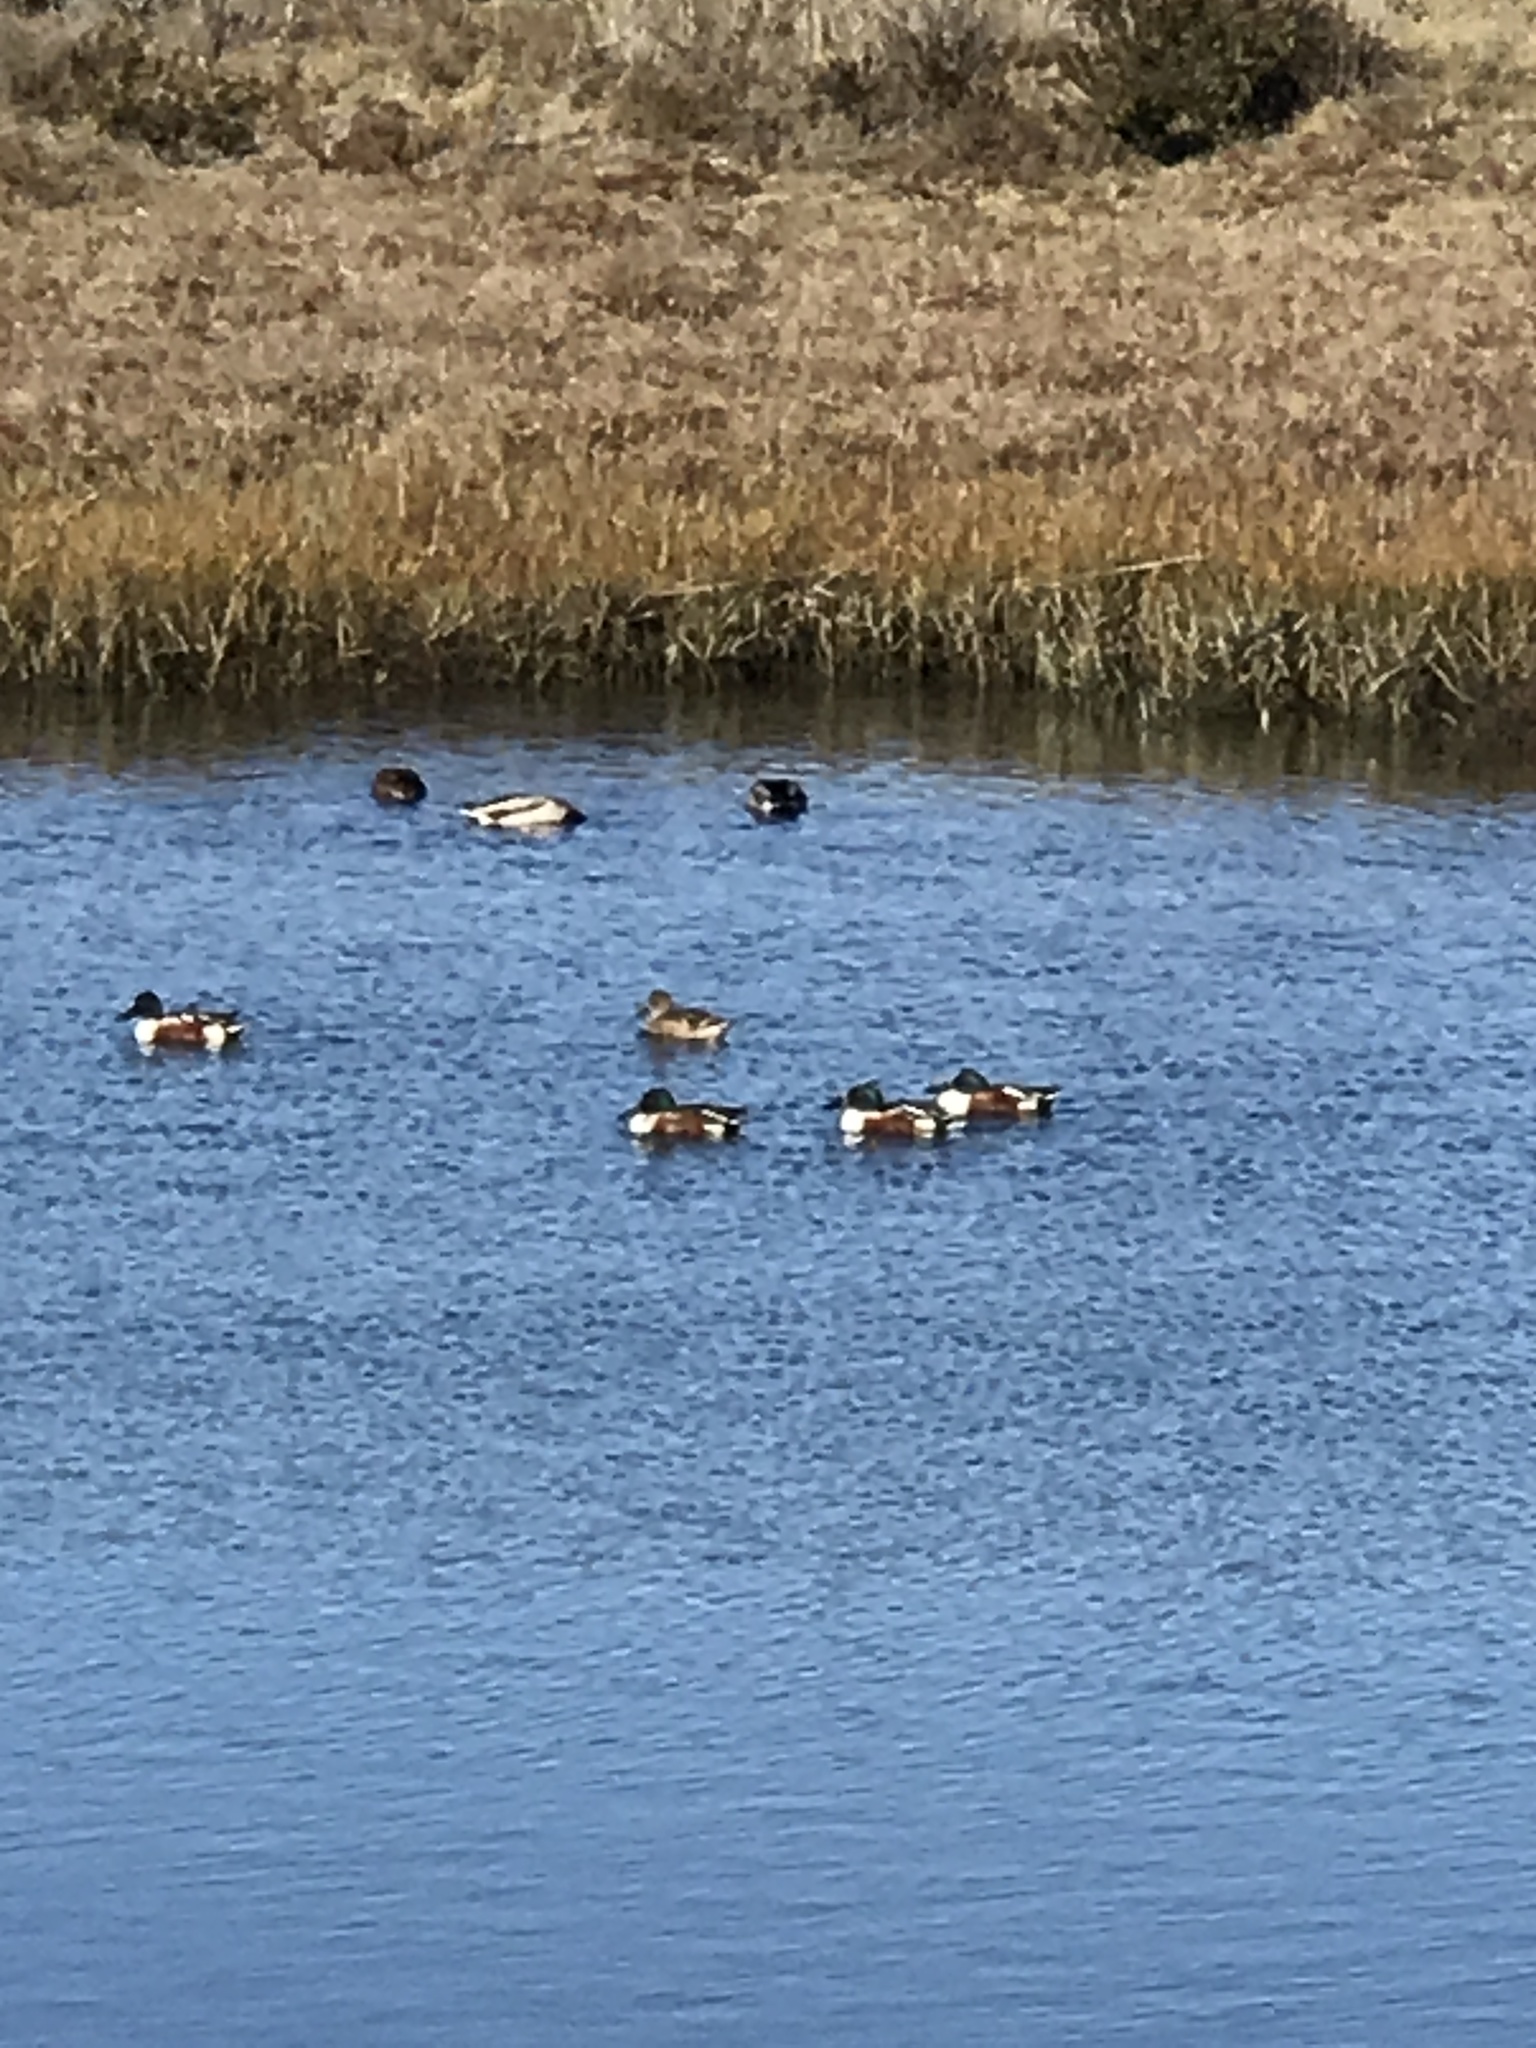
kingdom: Animalia
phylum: Chordata
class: Aves
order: Anseriformes
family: Anatidae
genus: Spatula
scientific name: Spatula clypeata
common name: Northern shoveler
